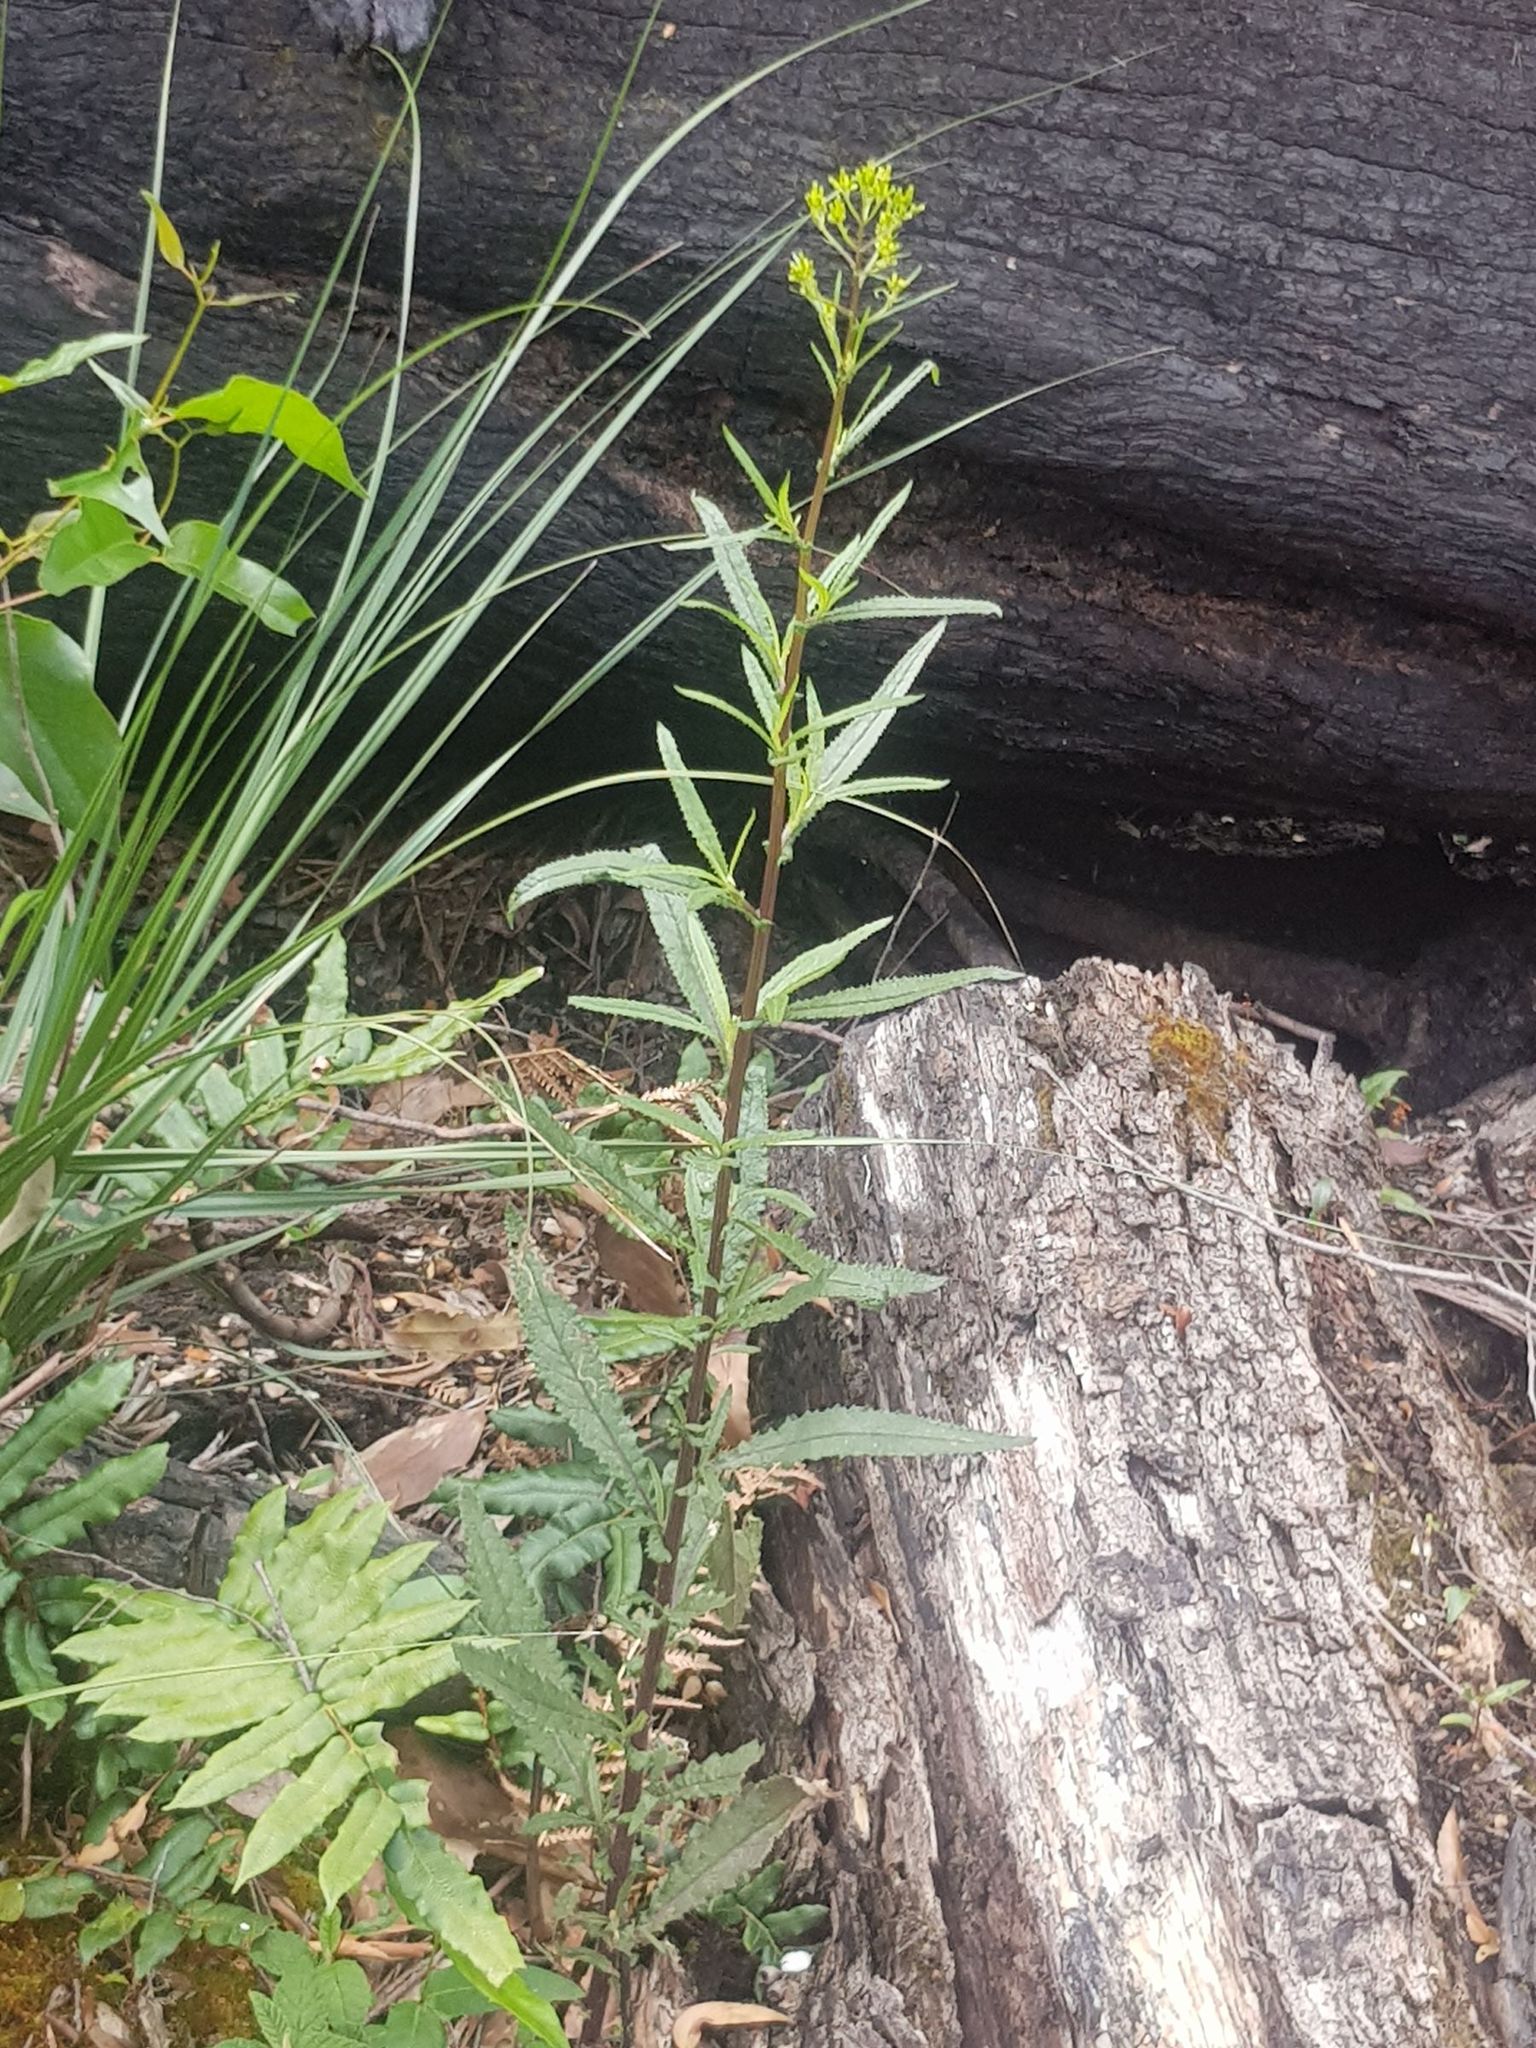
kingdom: Plantae
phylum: Tracheophyta
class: Magnoliopsida
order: Asterales
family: Asteraceae
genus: Senecio
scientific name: Senecio minimus
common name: Toothed fireweed
